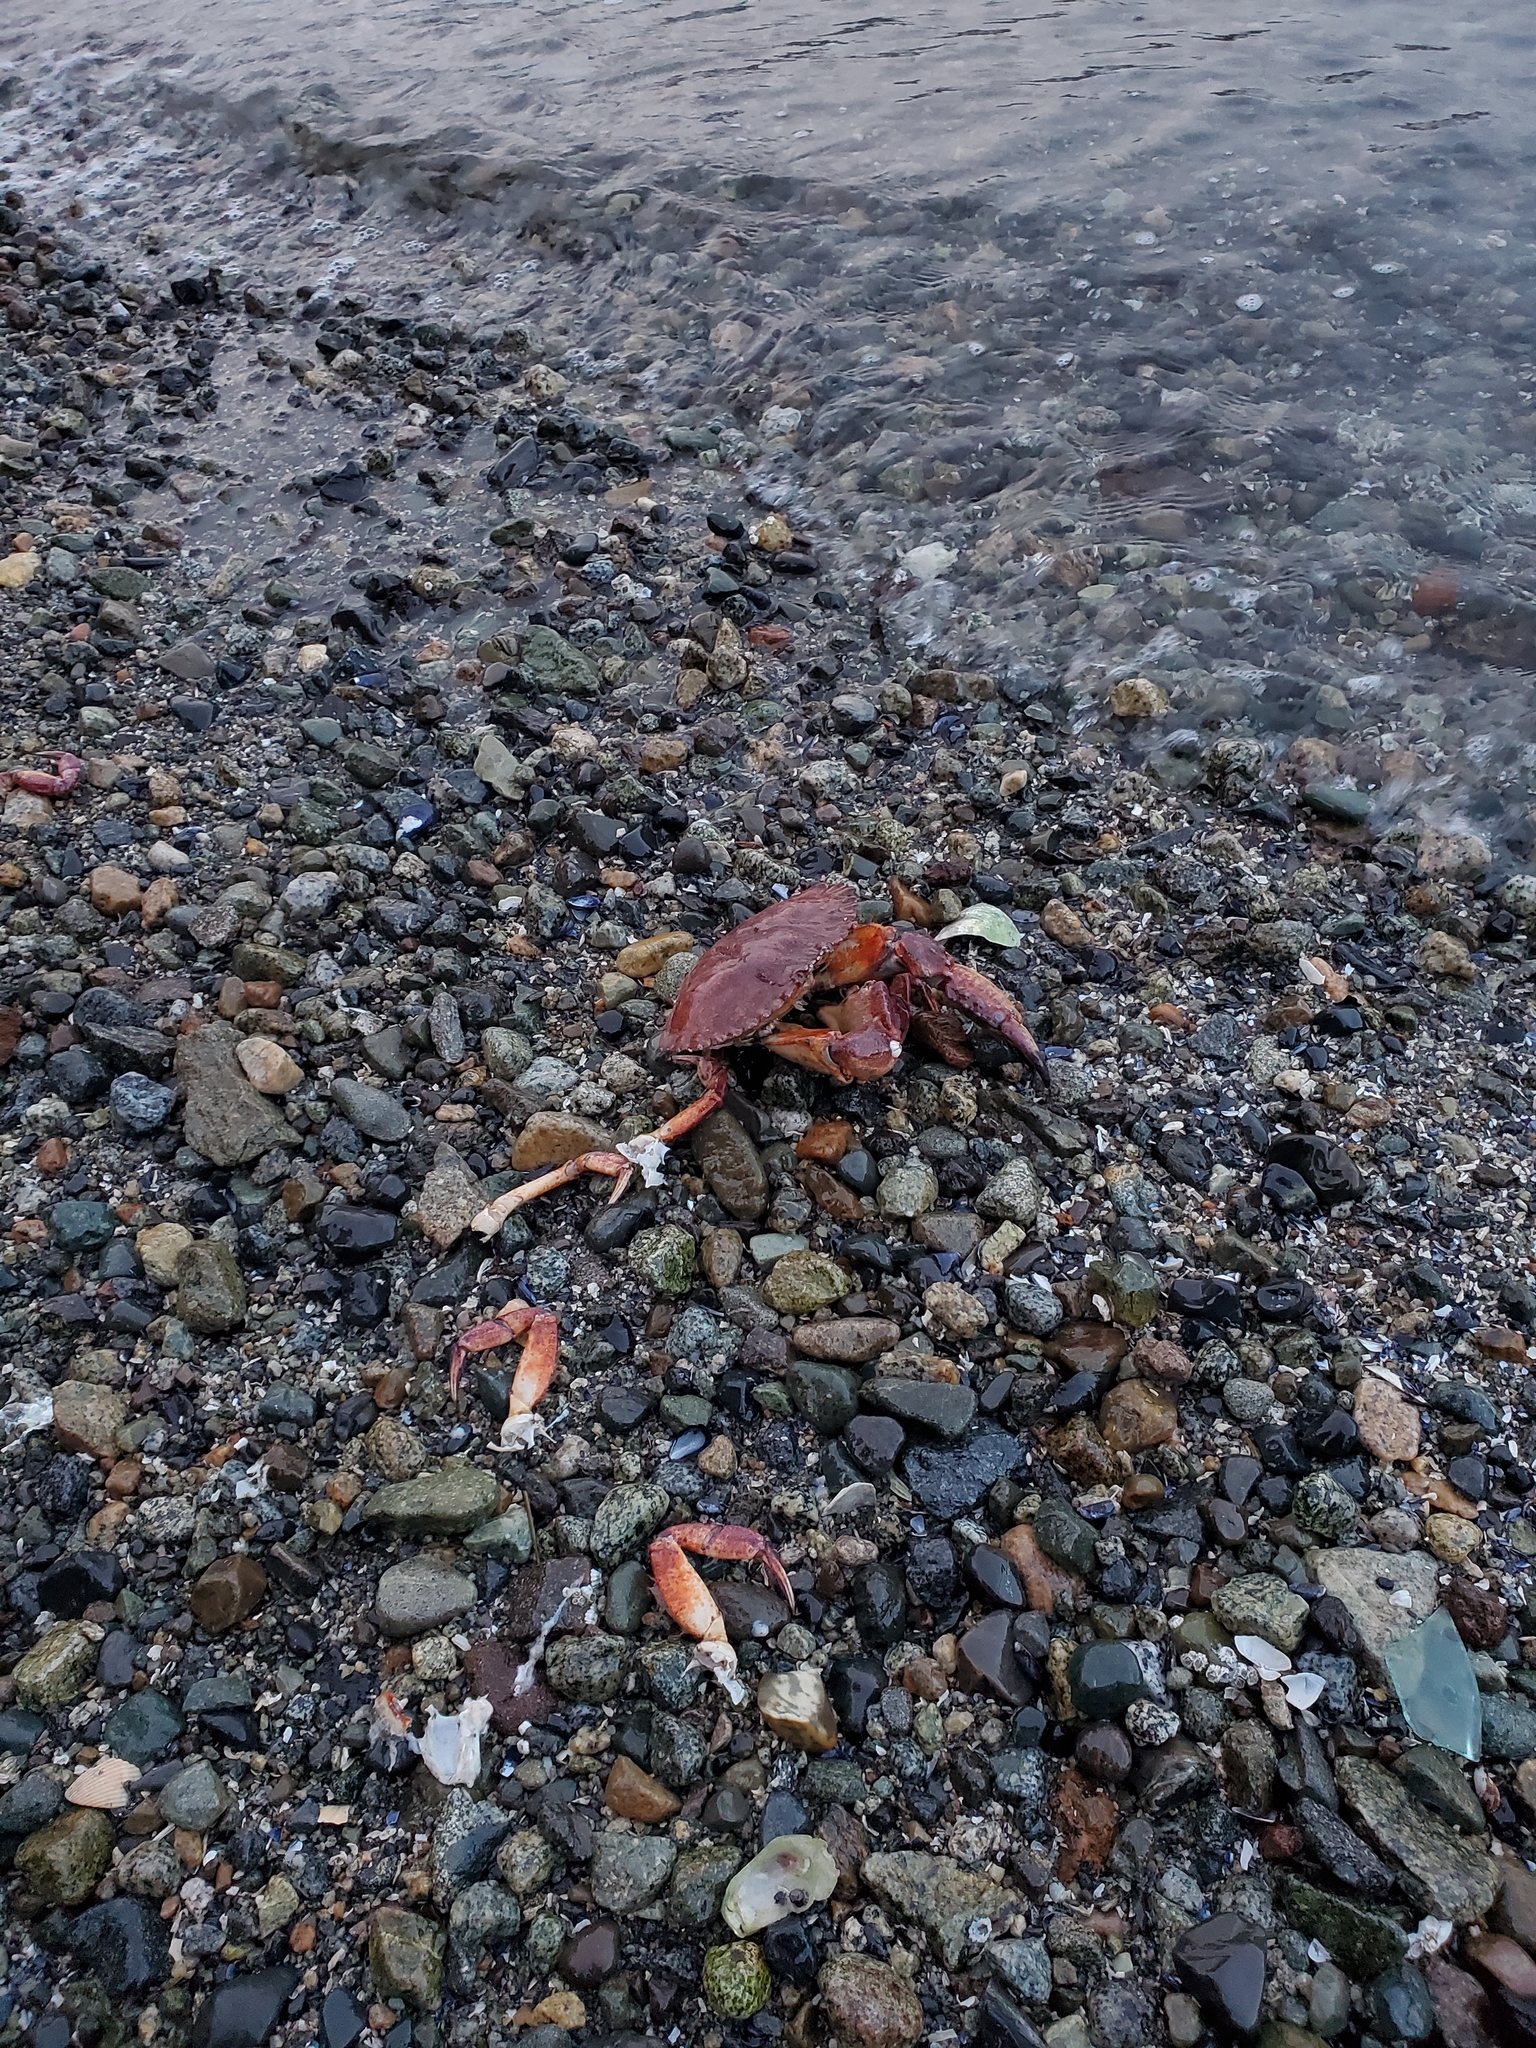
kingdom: Animalia
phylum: Arthropoda
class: Malacostraca
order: Decapoda
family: Cancridae
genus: Cancer
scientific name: Cancer productus
